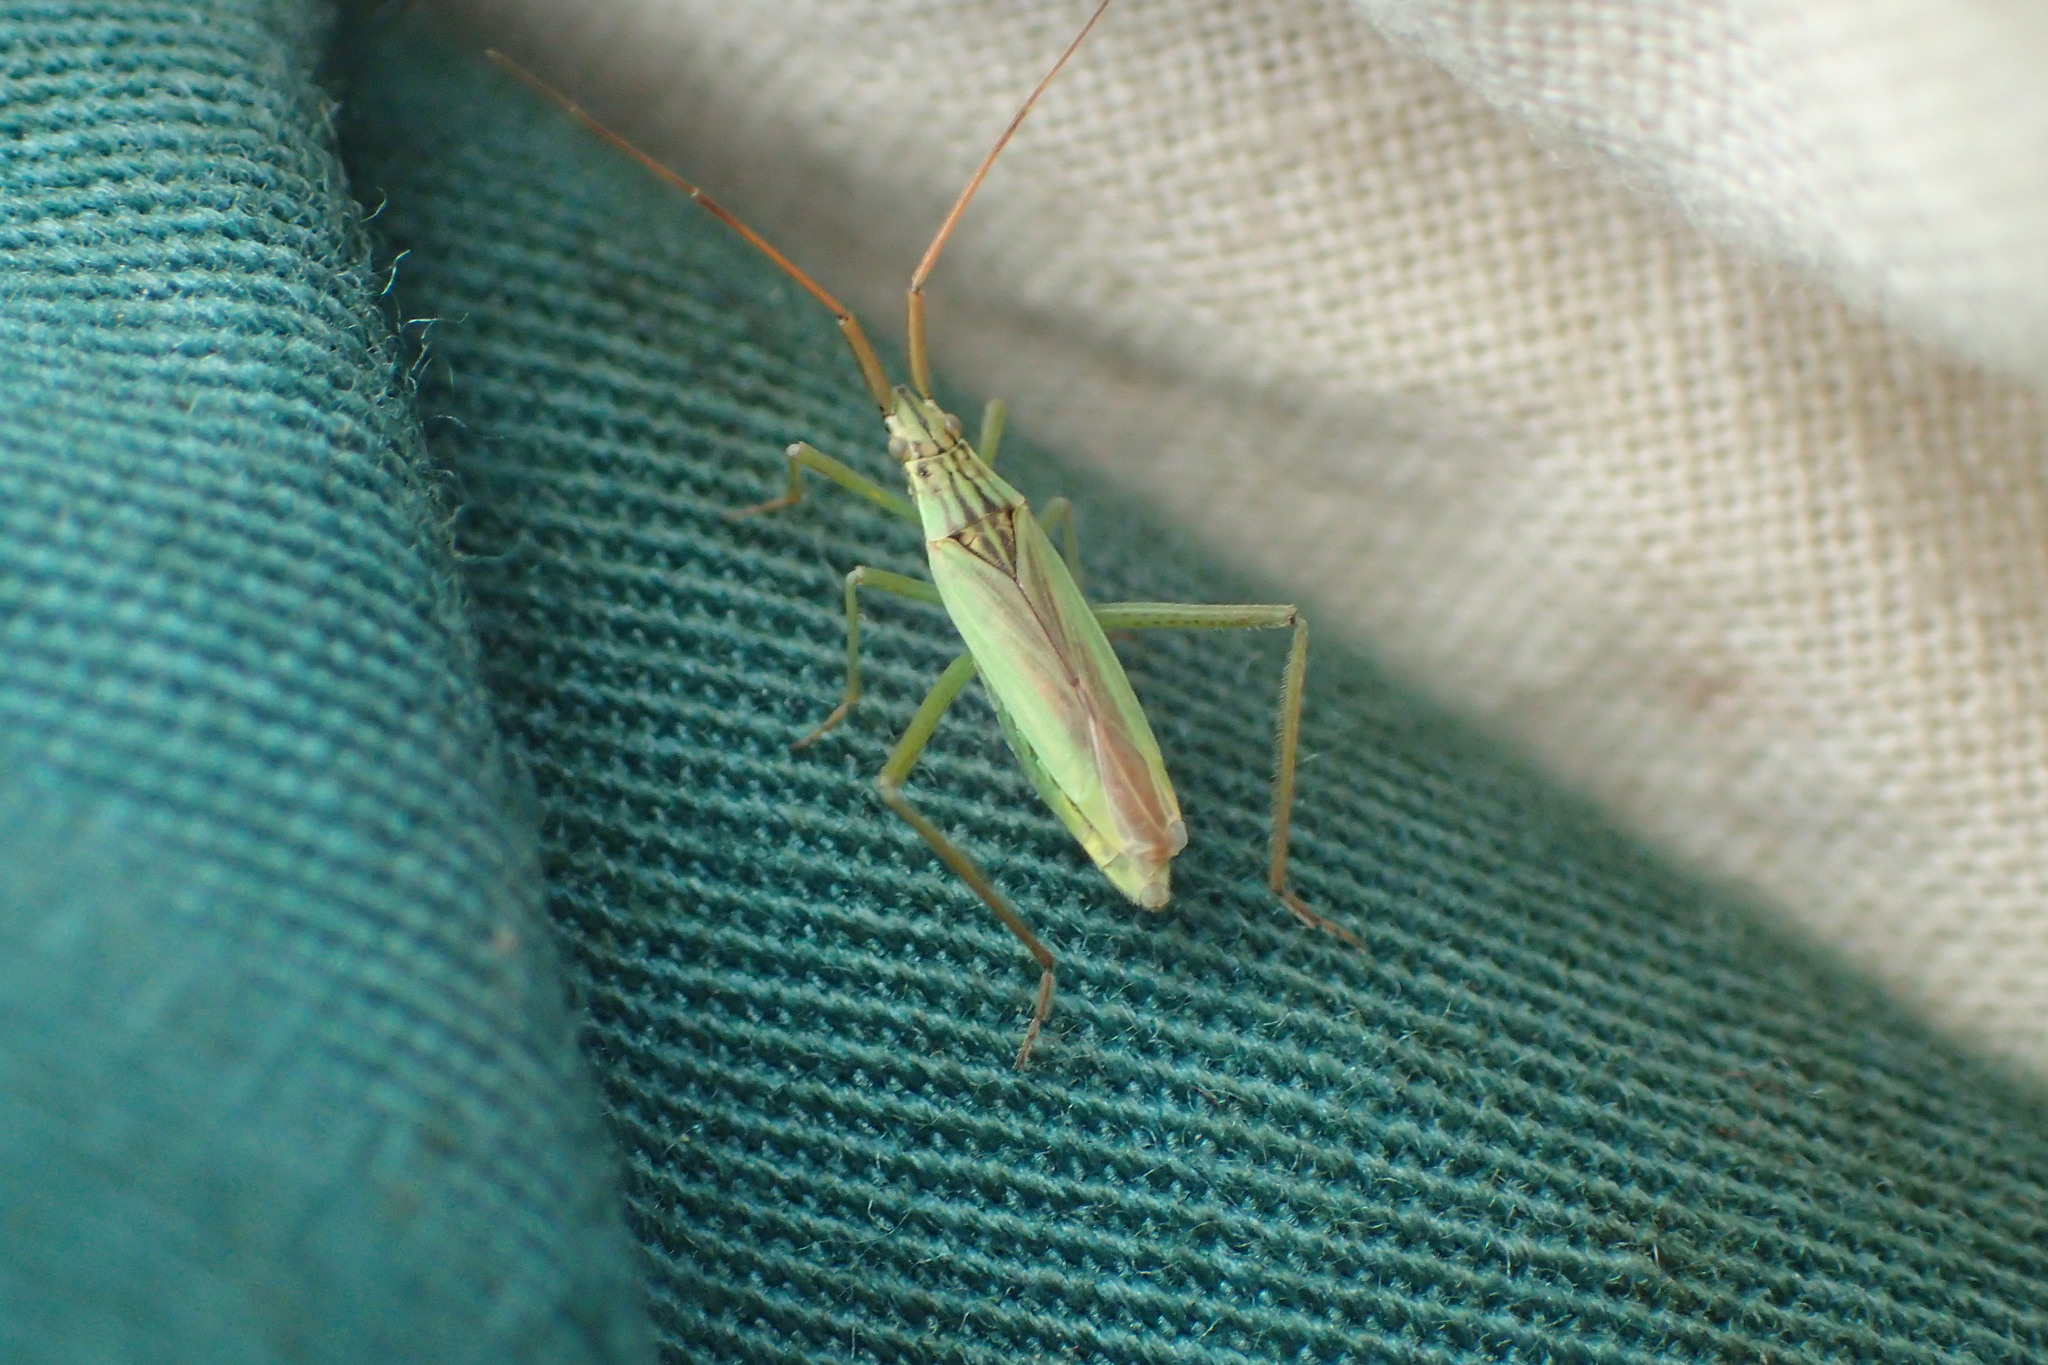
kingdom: Animalia
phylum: Arthropoda
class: Insecta
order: Hemiptera
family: Miridae
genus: Notostira
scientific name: Notostira elongata
